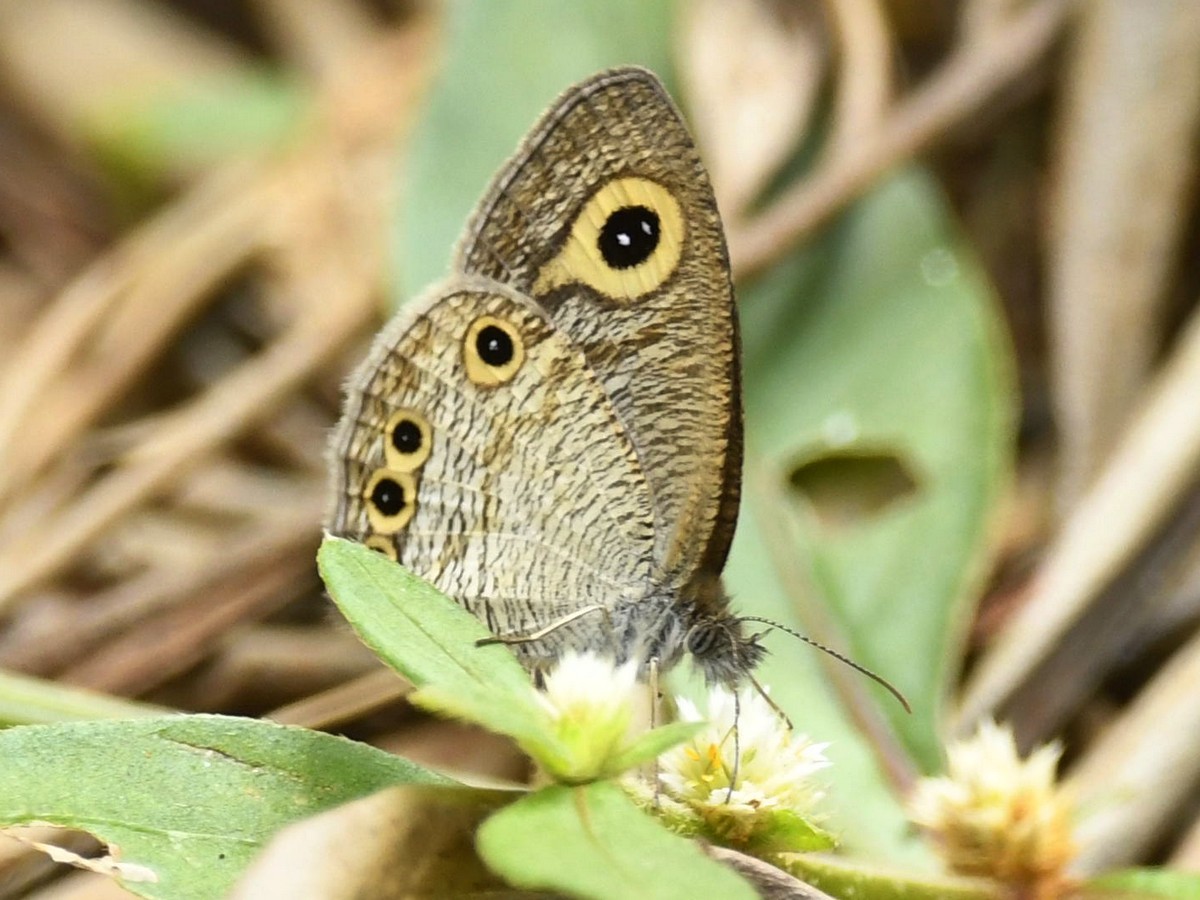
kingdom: Animalia
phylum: Arthropoda
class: Insecta
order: Lepidoptera
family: Nymphalidae
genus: Ypthima
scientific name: Ypthima huebneri
